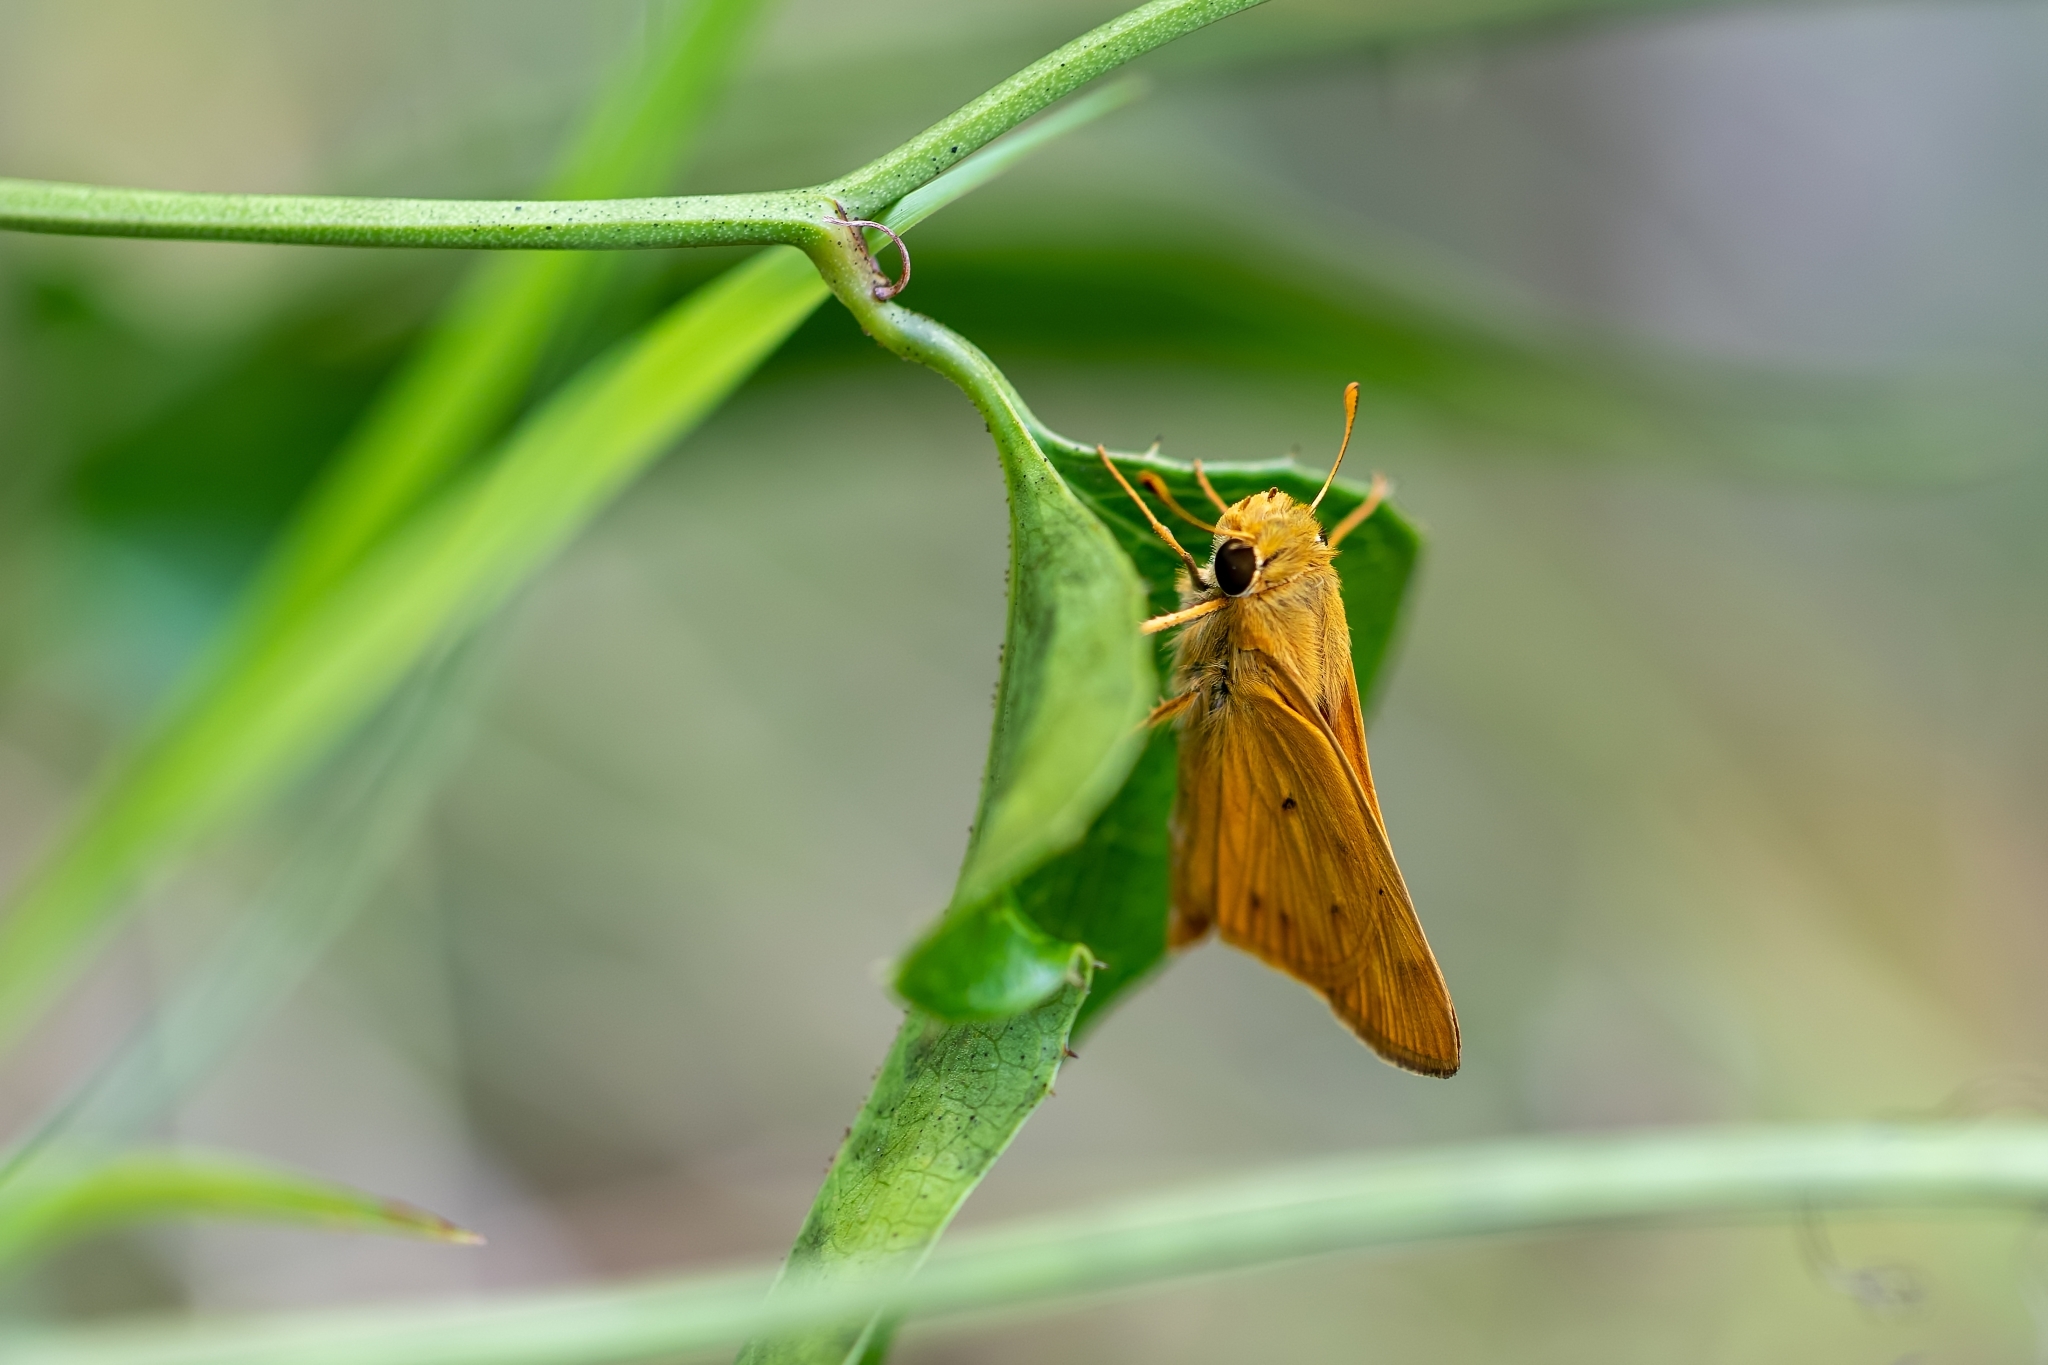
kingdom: Animalia
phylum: Arthropoda
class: Insecta
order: Lepidoptera
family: Hesperiidae
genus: Hylephila
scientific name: Hylephila phyleus
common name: Fiery skipper
